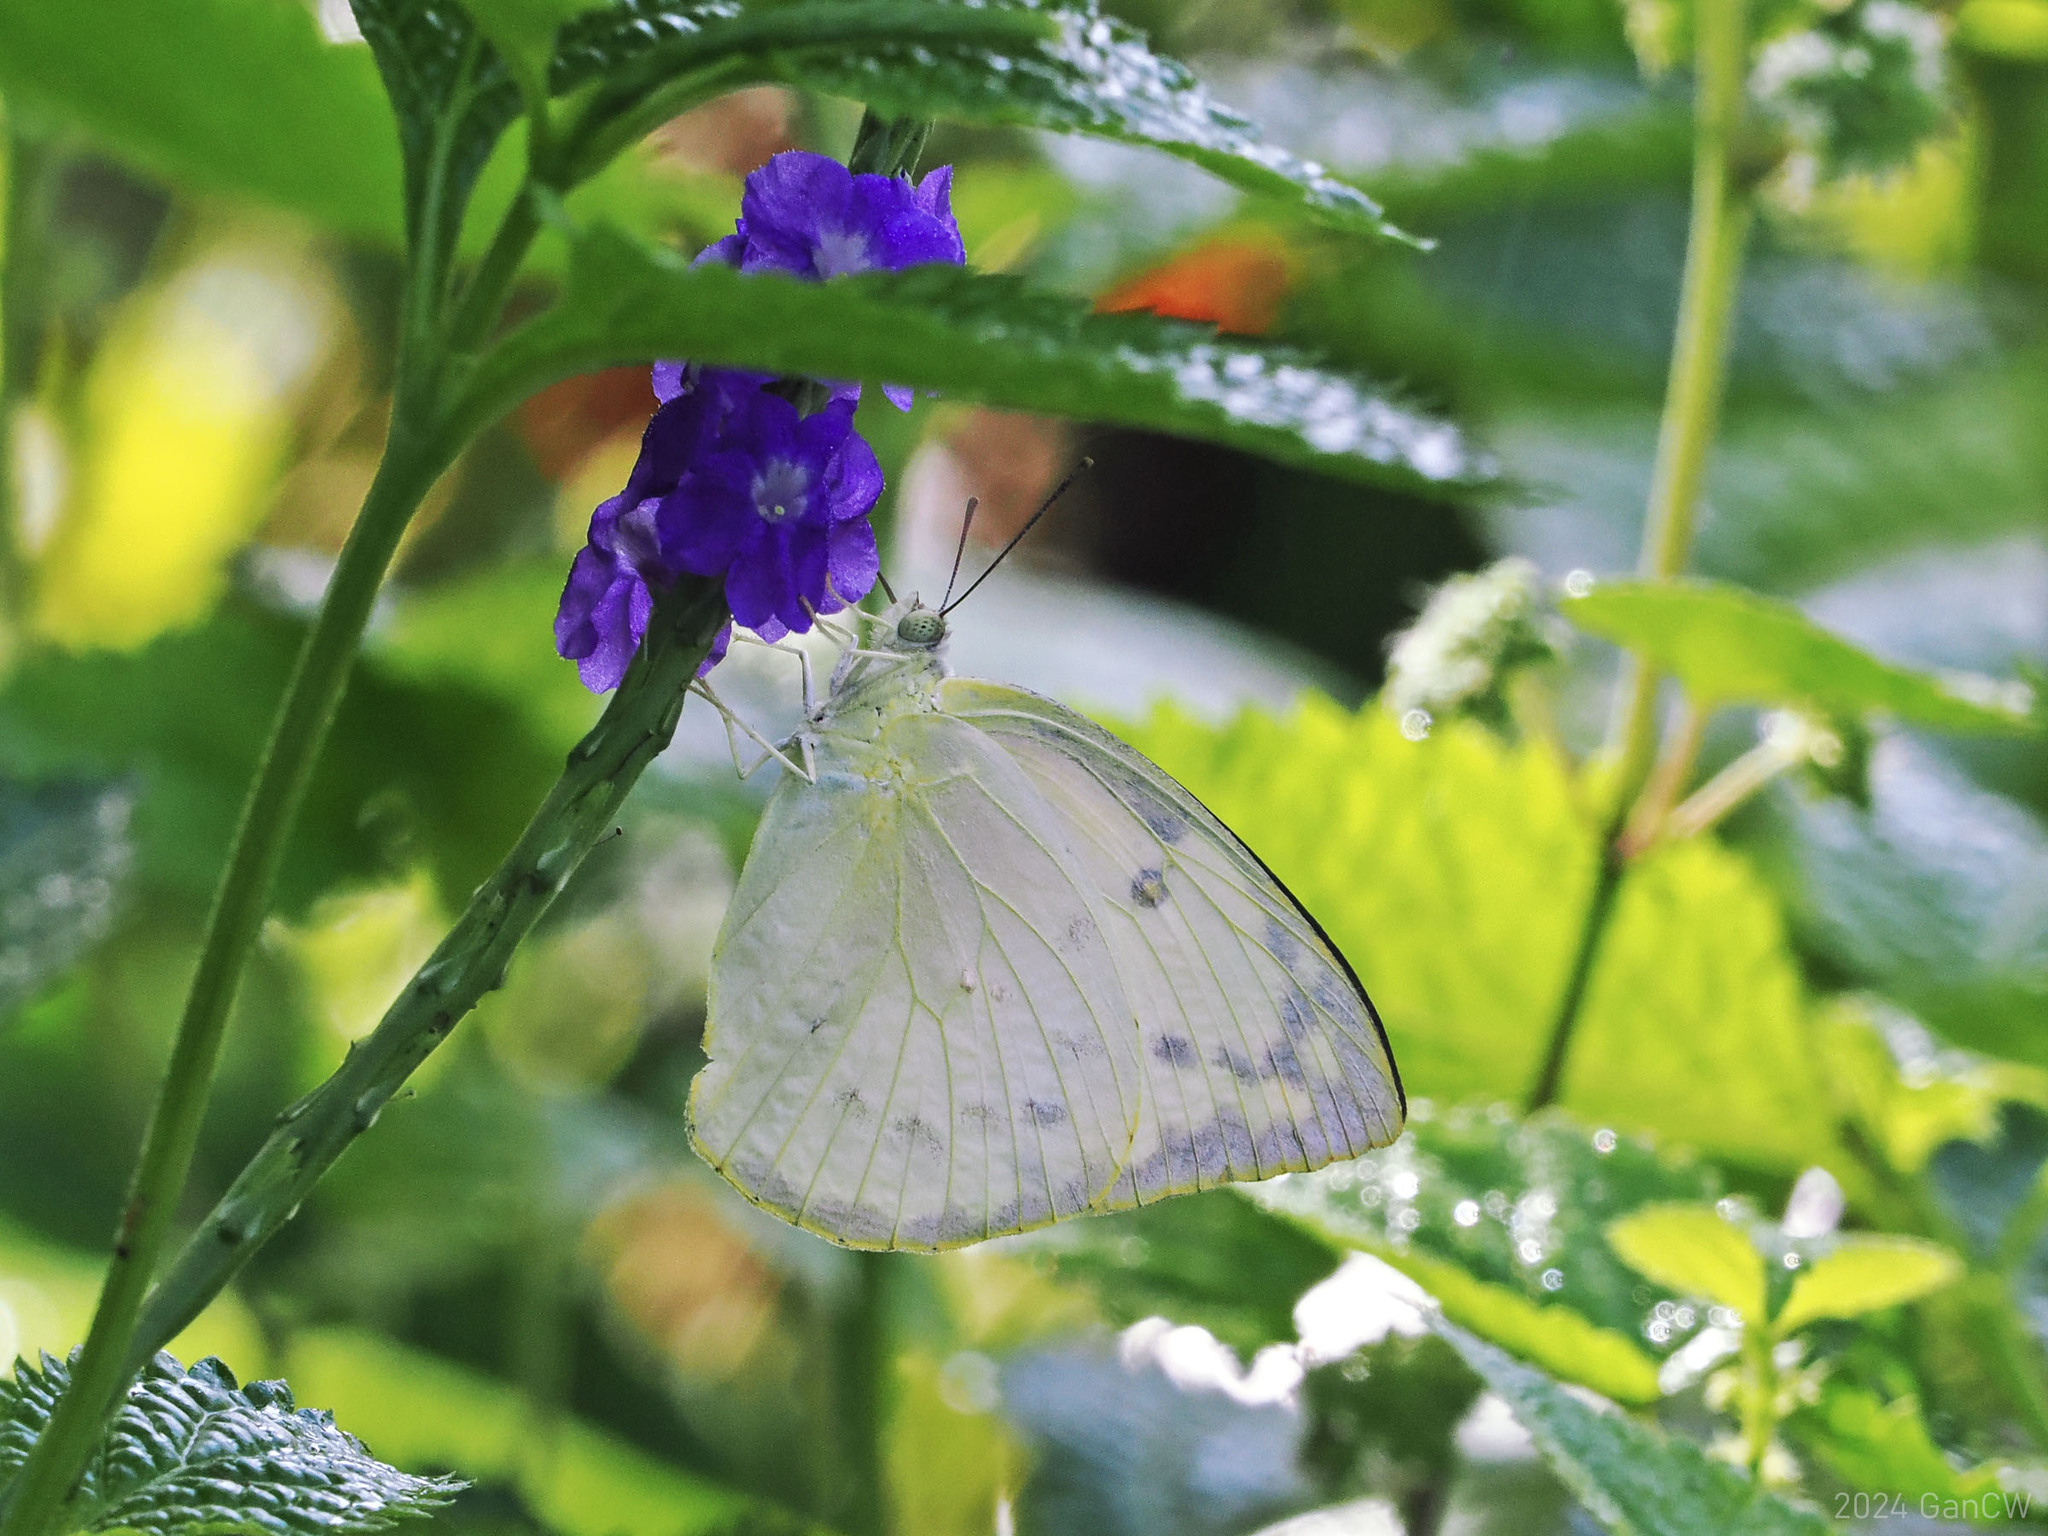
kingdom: Animalia
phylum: Arthropoda
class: Insecta
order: Lepidoptera
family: Pieridae
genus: Catopsilia
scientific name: Catopsilia pomona
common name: Common emigrant
